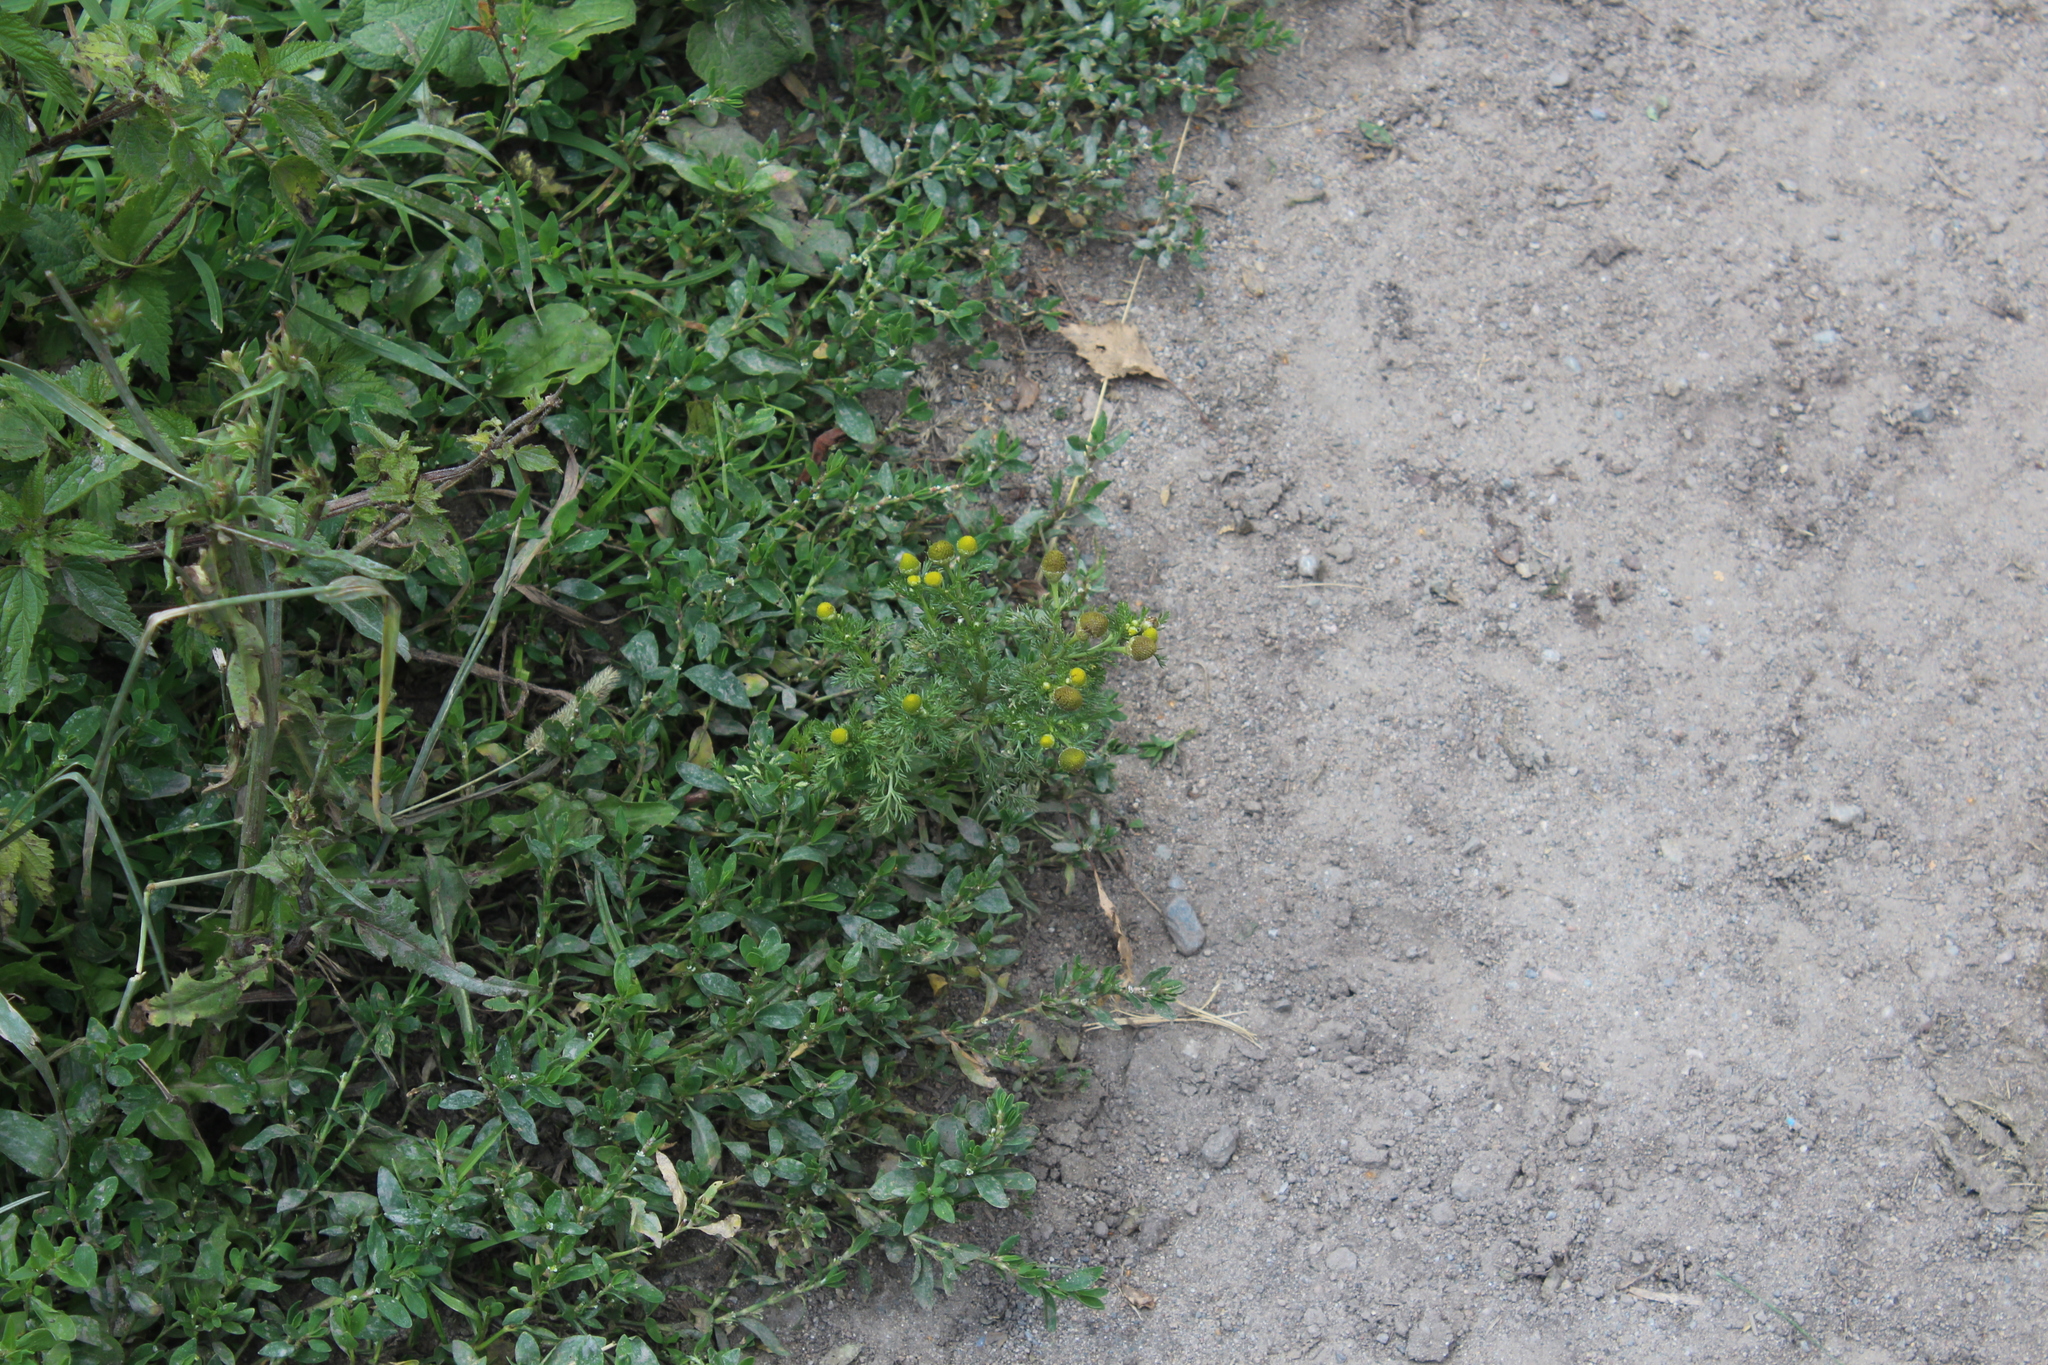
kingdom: Plantae
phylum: Tracheophyta
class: Magnoliopsida
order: Asterales
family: Asteraceae
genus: Matricaria
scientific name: Matricaria discoidea
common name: Disc mayweed
